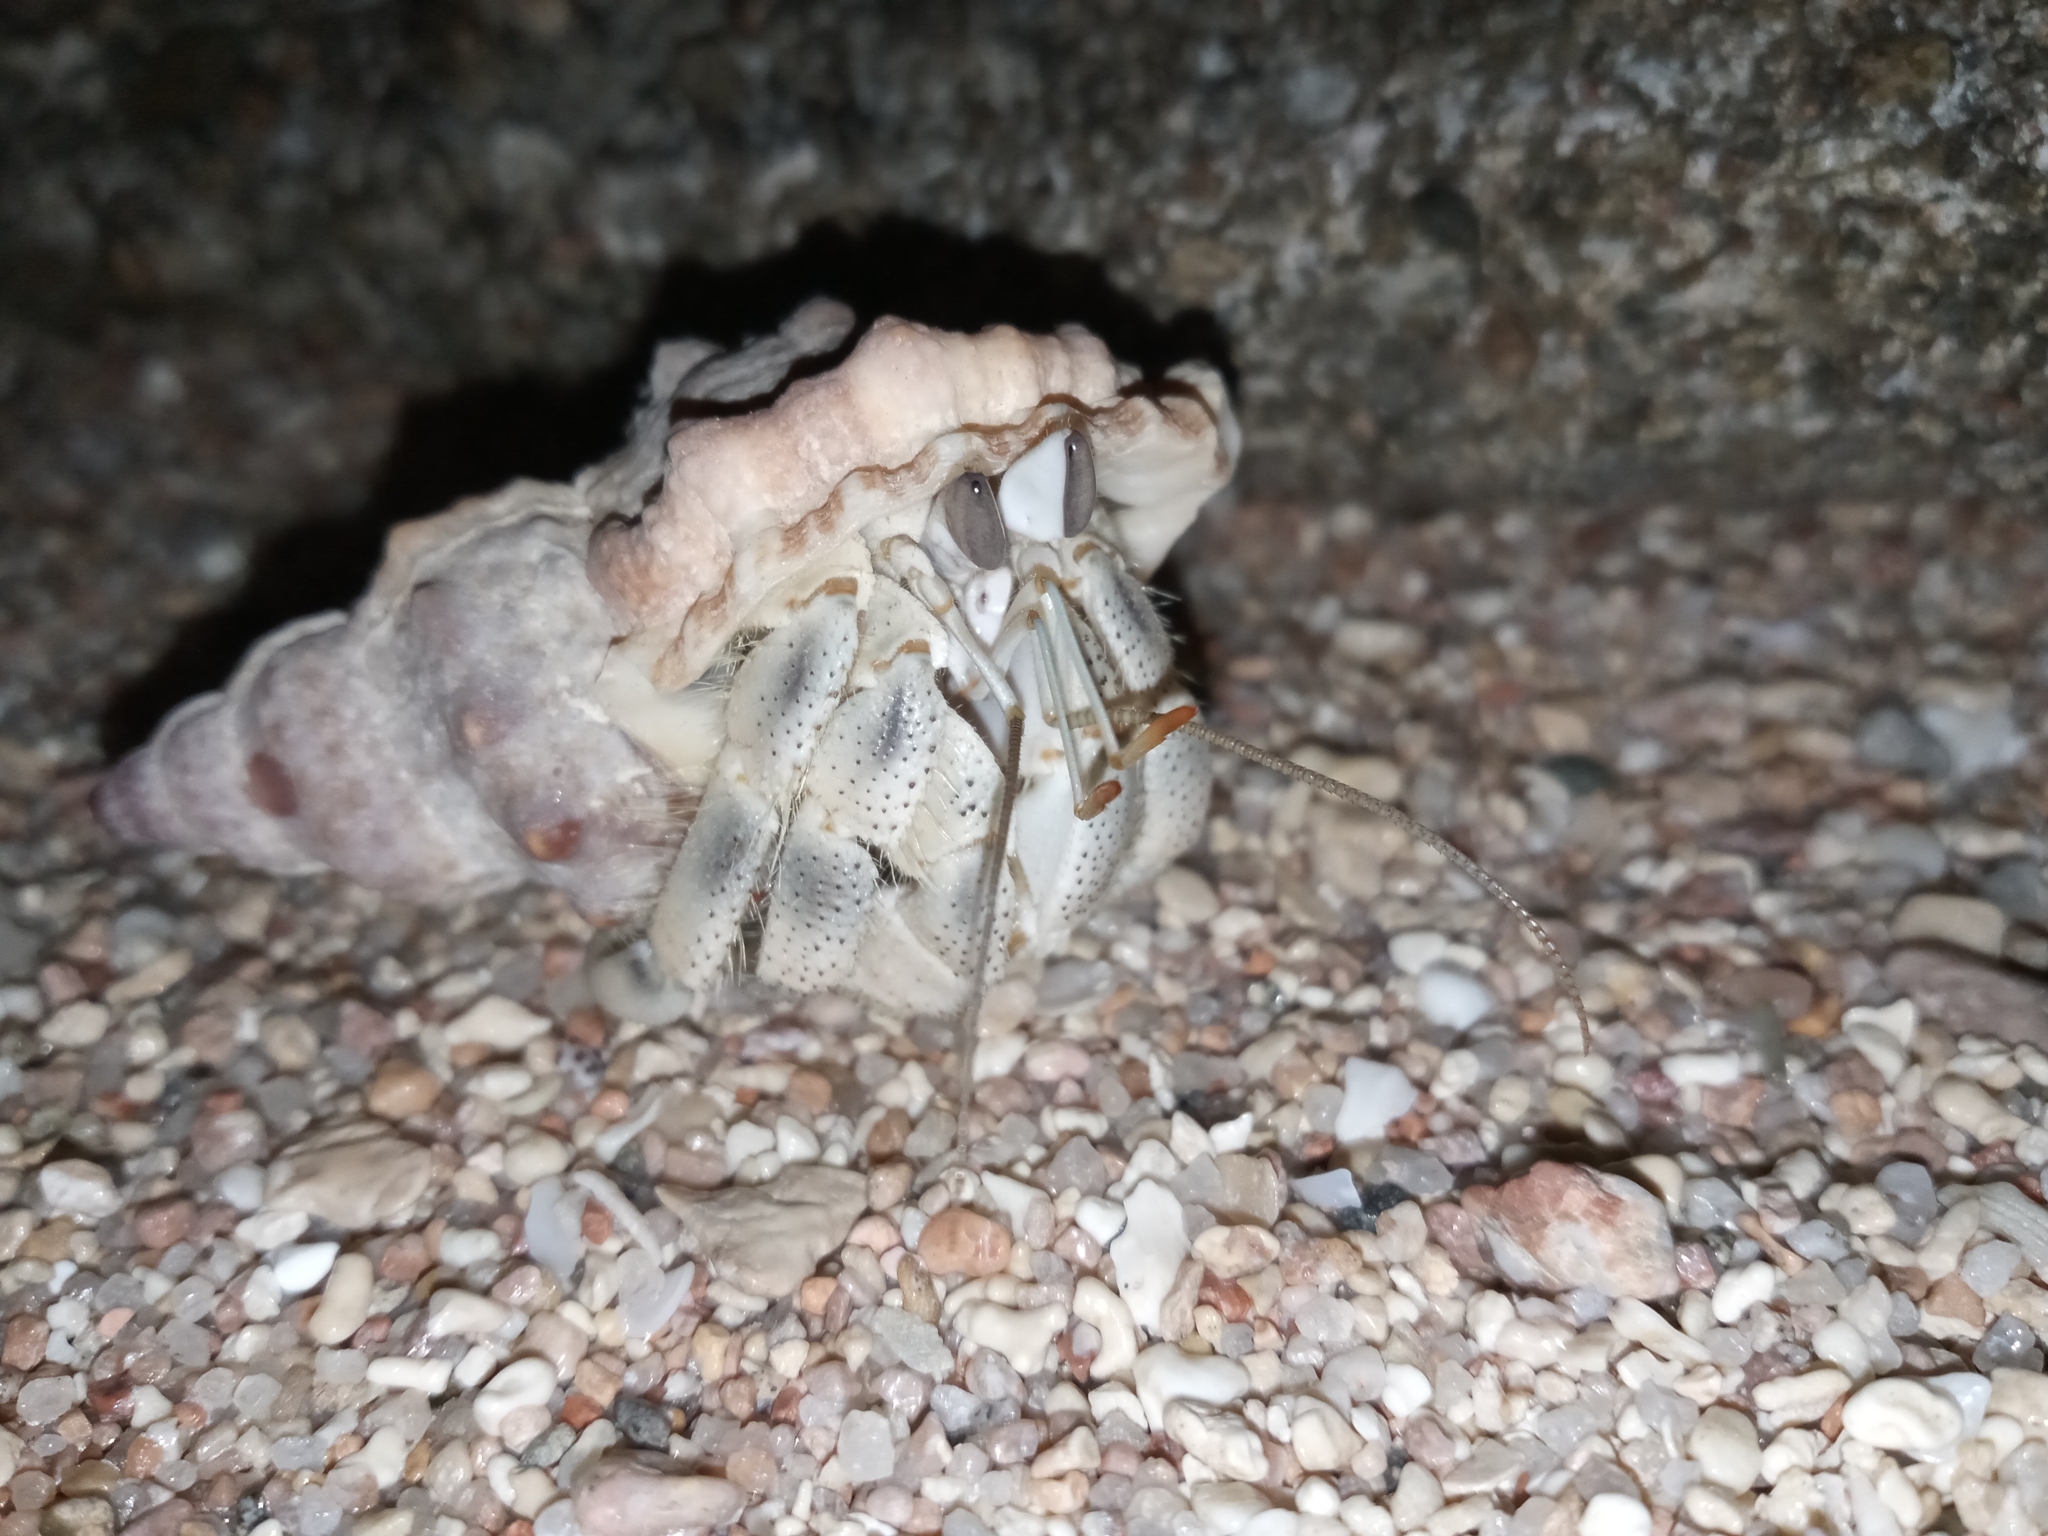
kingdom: Animalia
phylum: Arthropoda
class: Malacostraca
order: Decapoda
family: Coenobitidae
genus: Coenobita
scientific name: Coenobita scaevola
